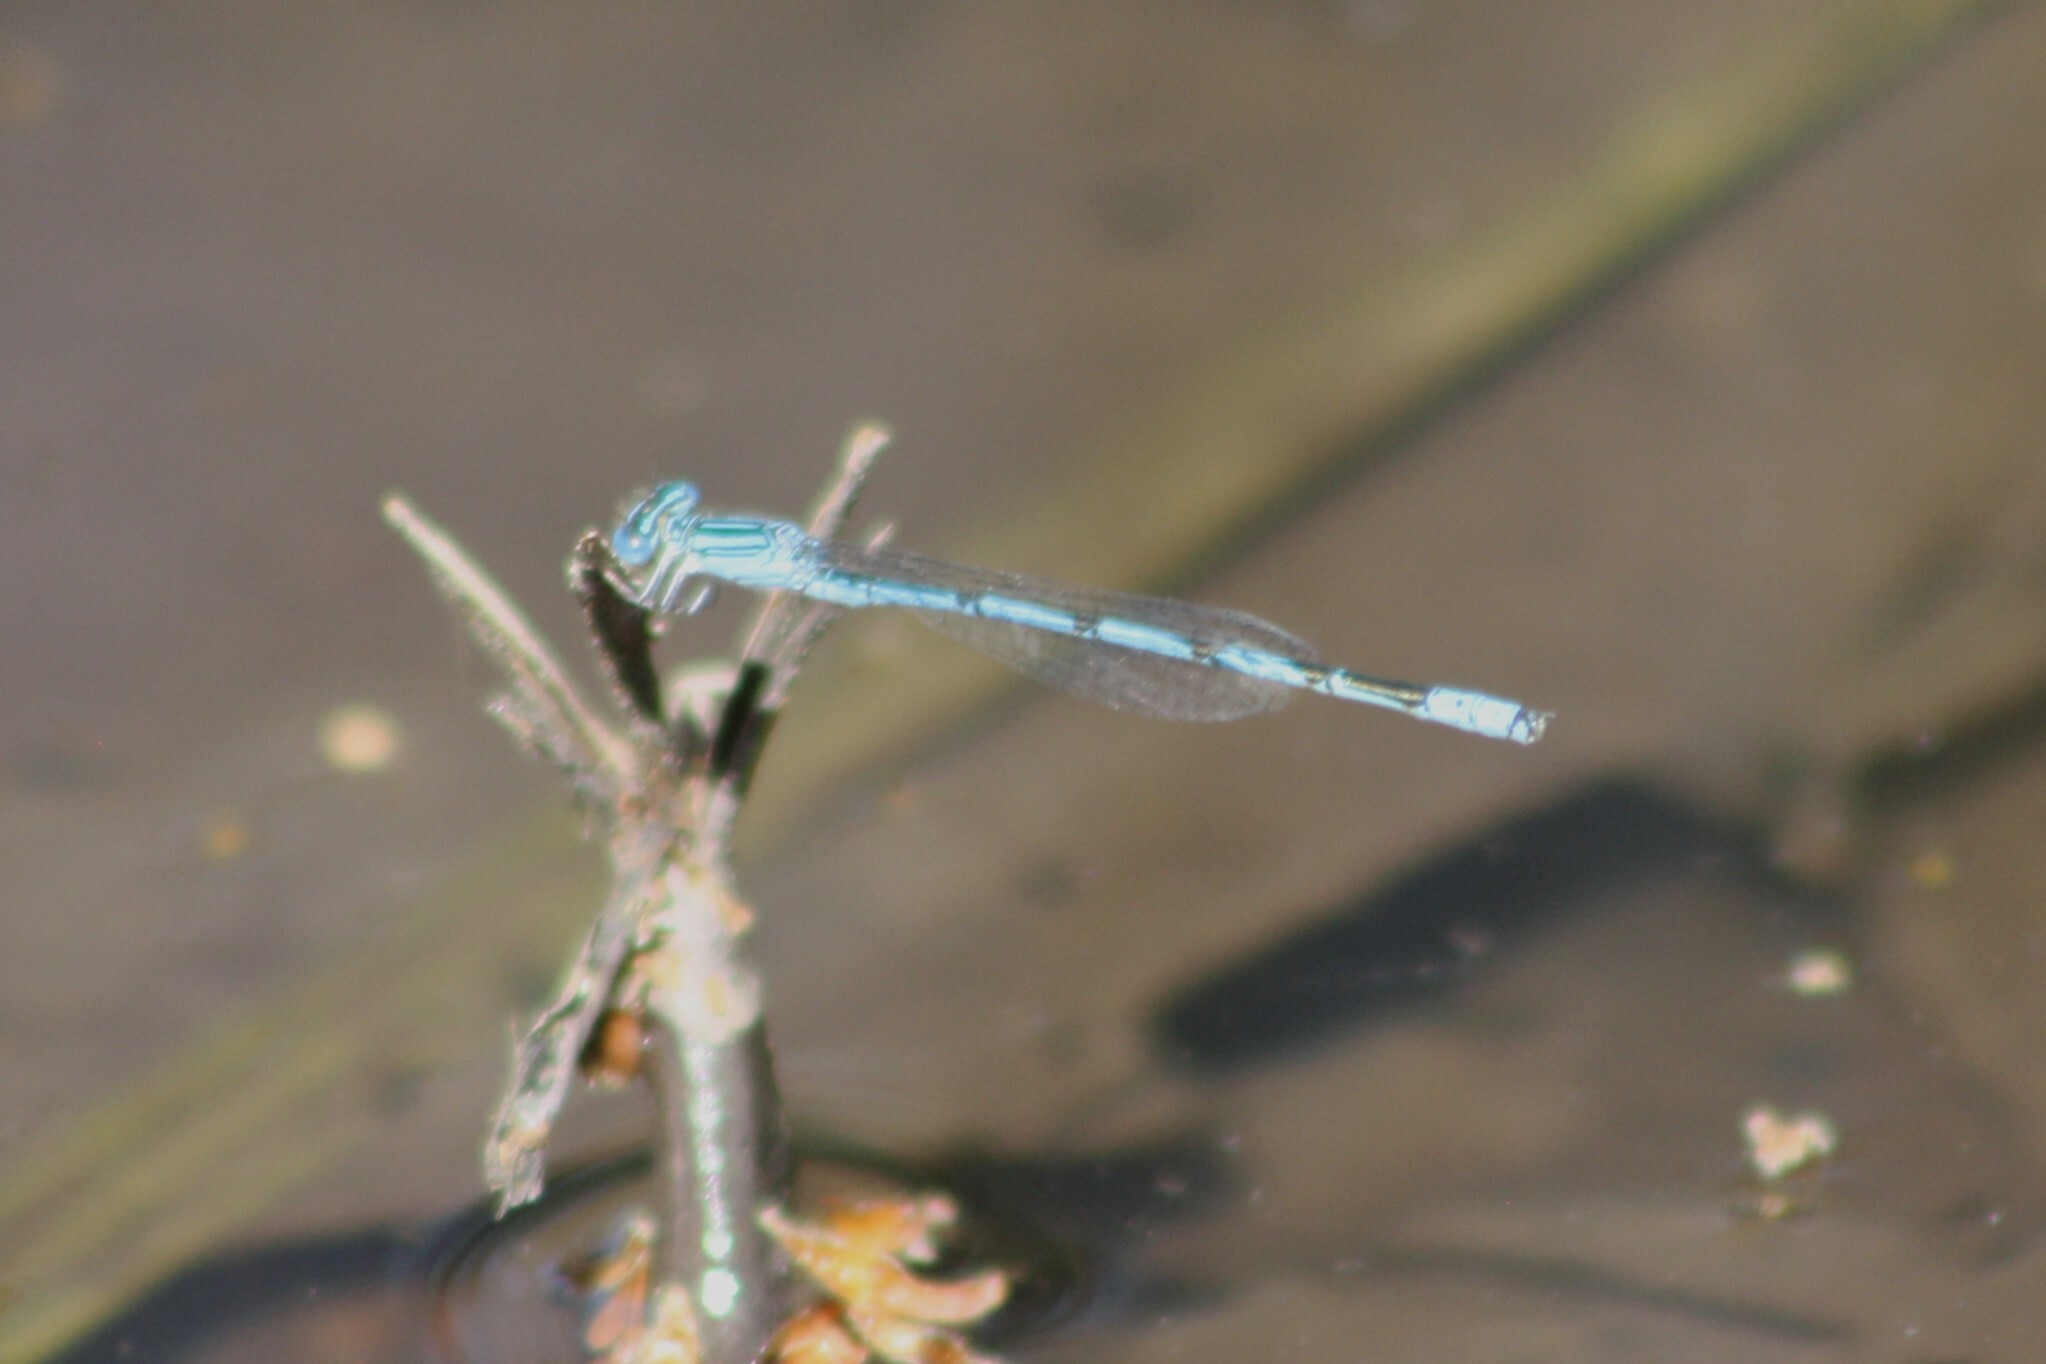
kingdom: Animalia
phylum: Arthropoda
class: Insecta
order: Odonata
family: Coenagrionidae
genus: Enallagma
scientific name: Enallagma basidens
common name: Double-striped bluet
